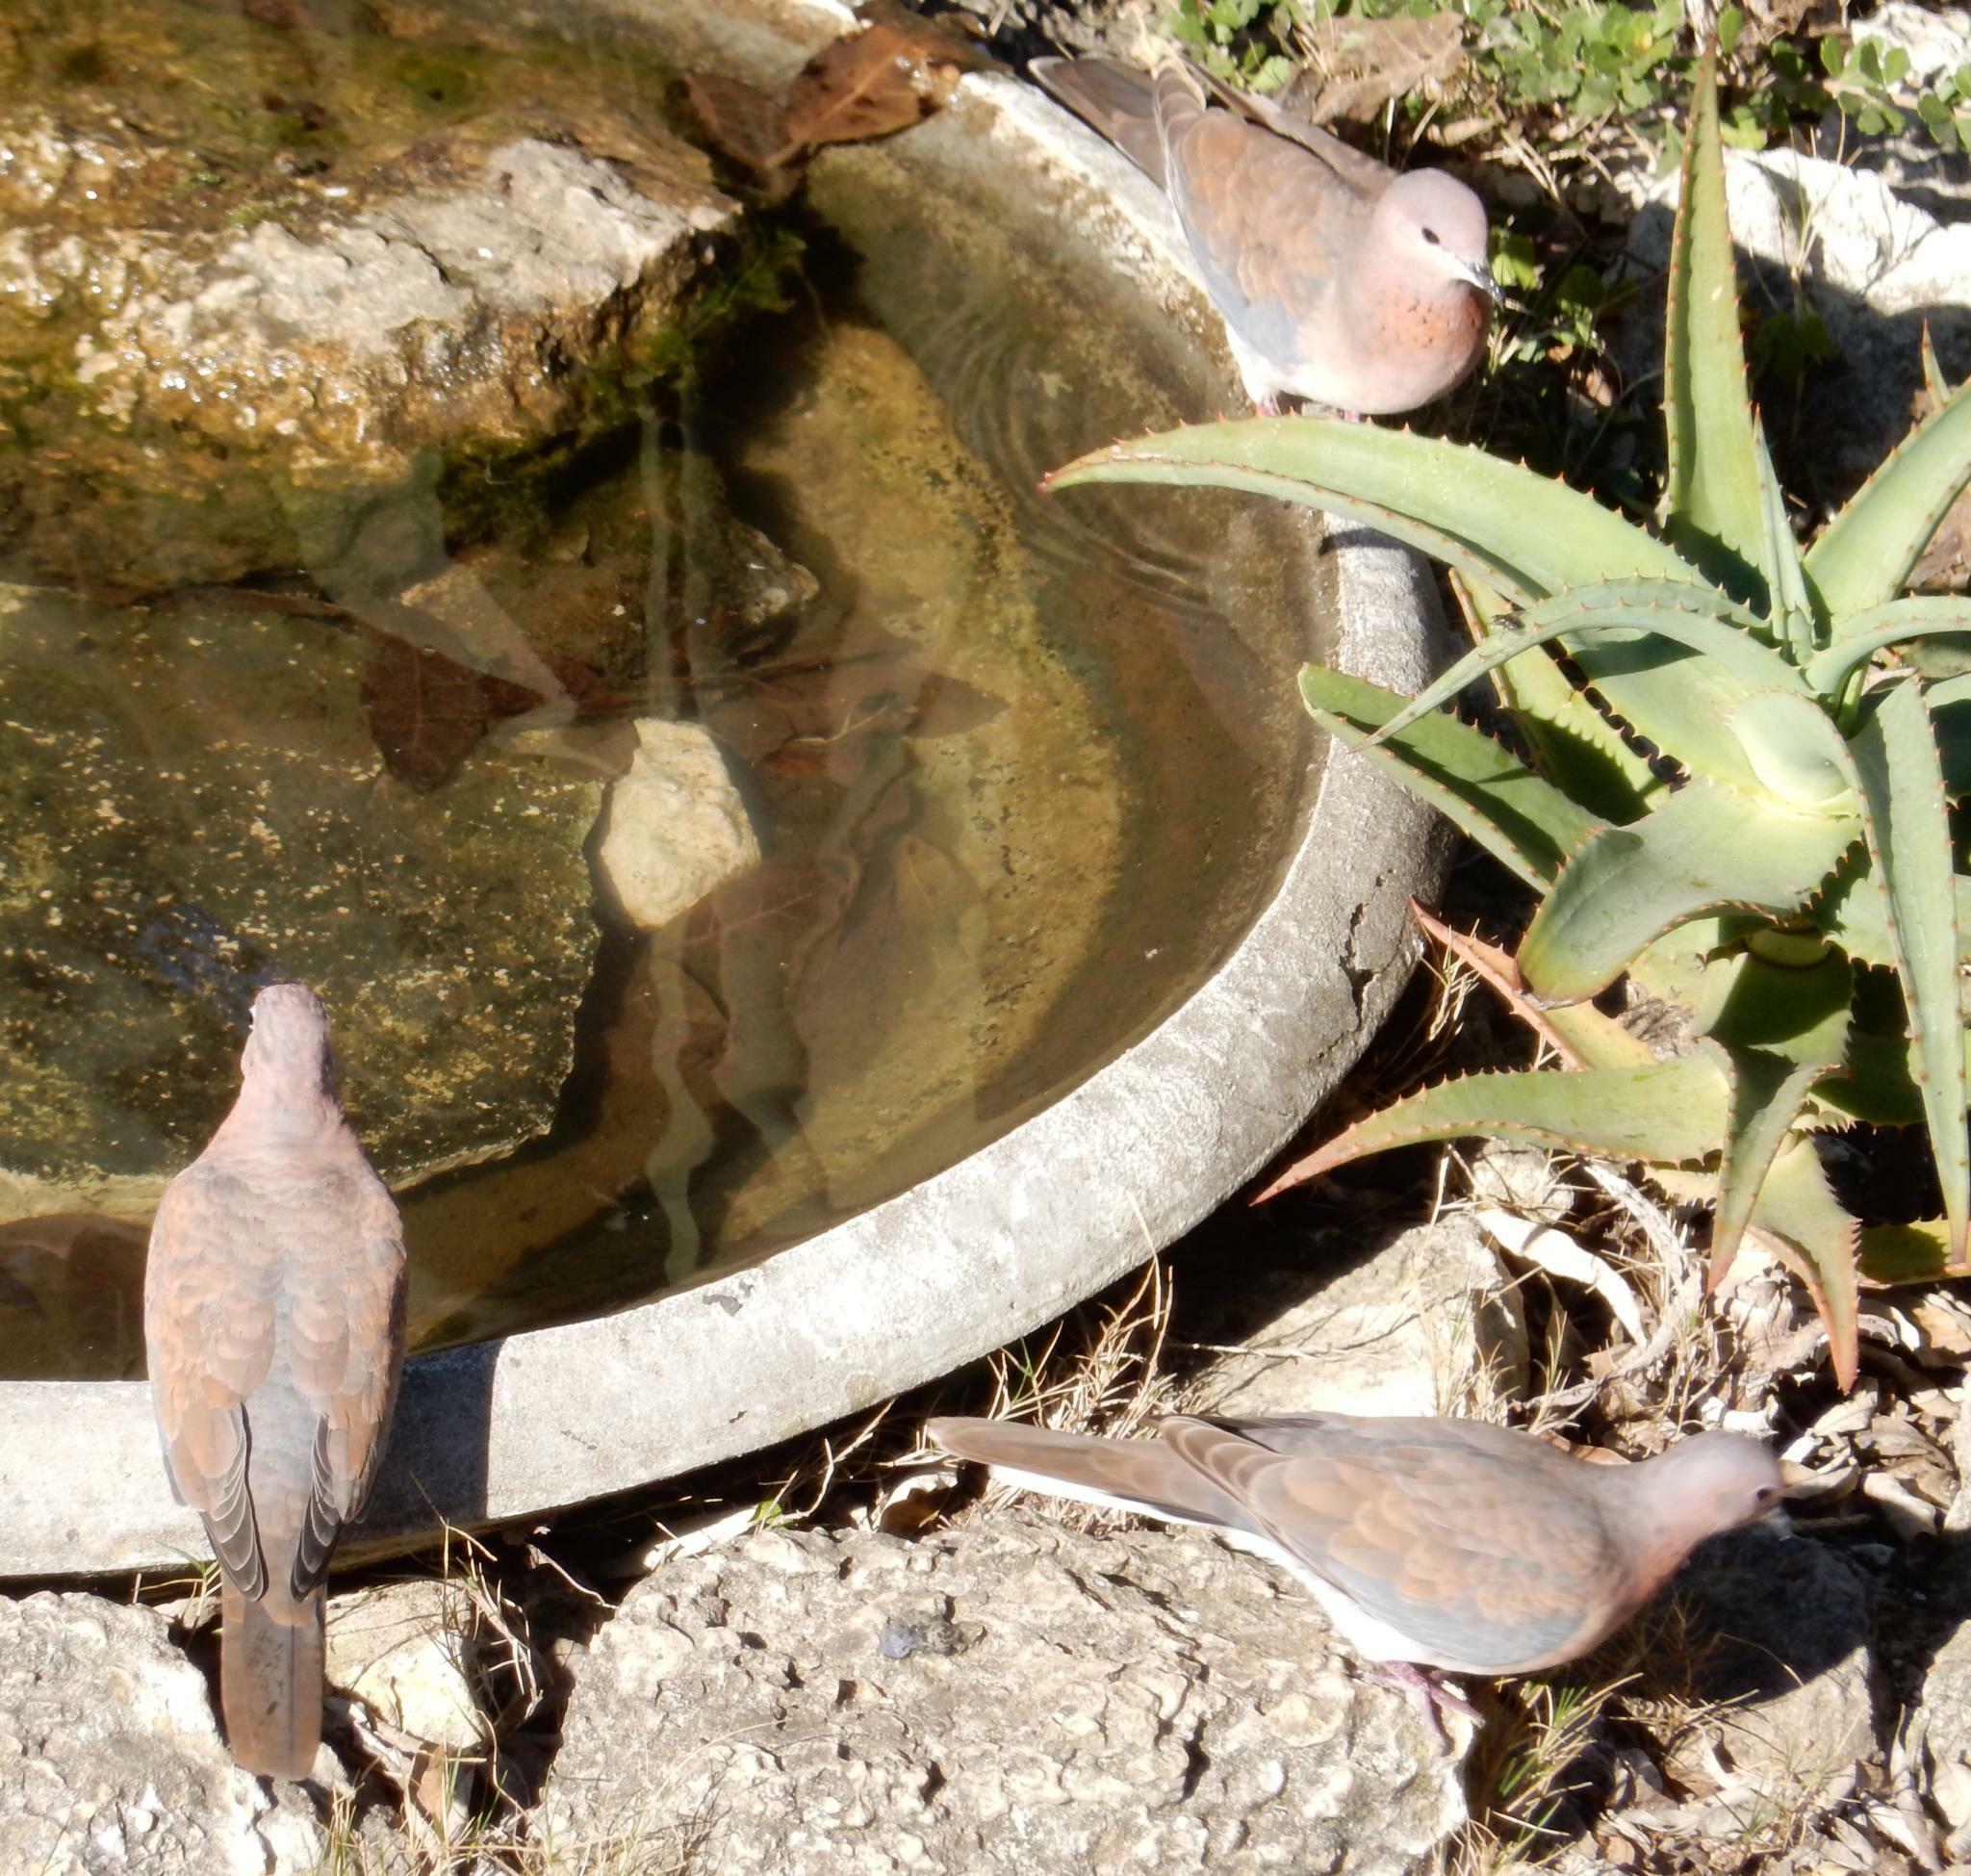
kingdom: Animalia
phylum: Chordata
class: Aves
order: Columbiformes
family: Columbidae
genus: Spilopelia
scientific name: Spilopelia senegalensis
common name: Laughing dove
